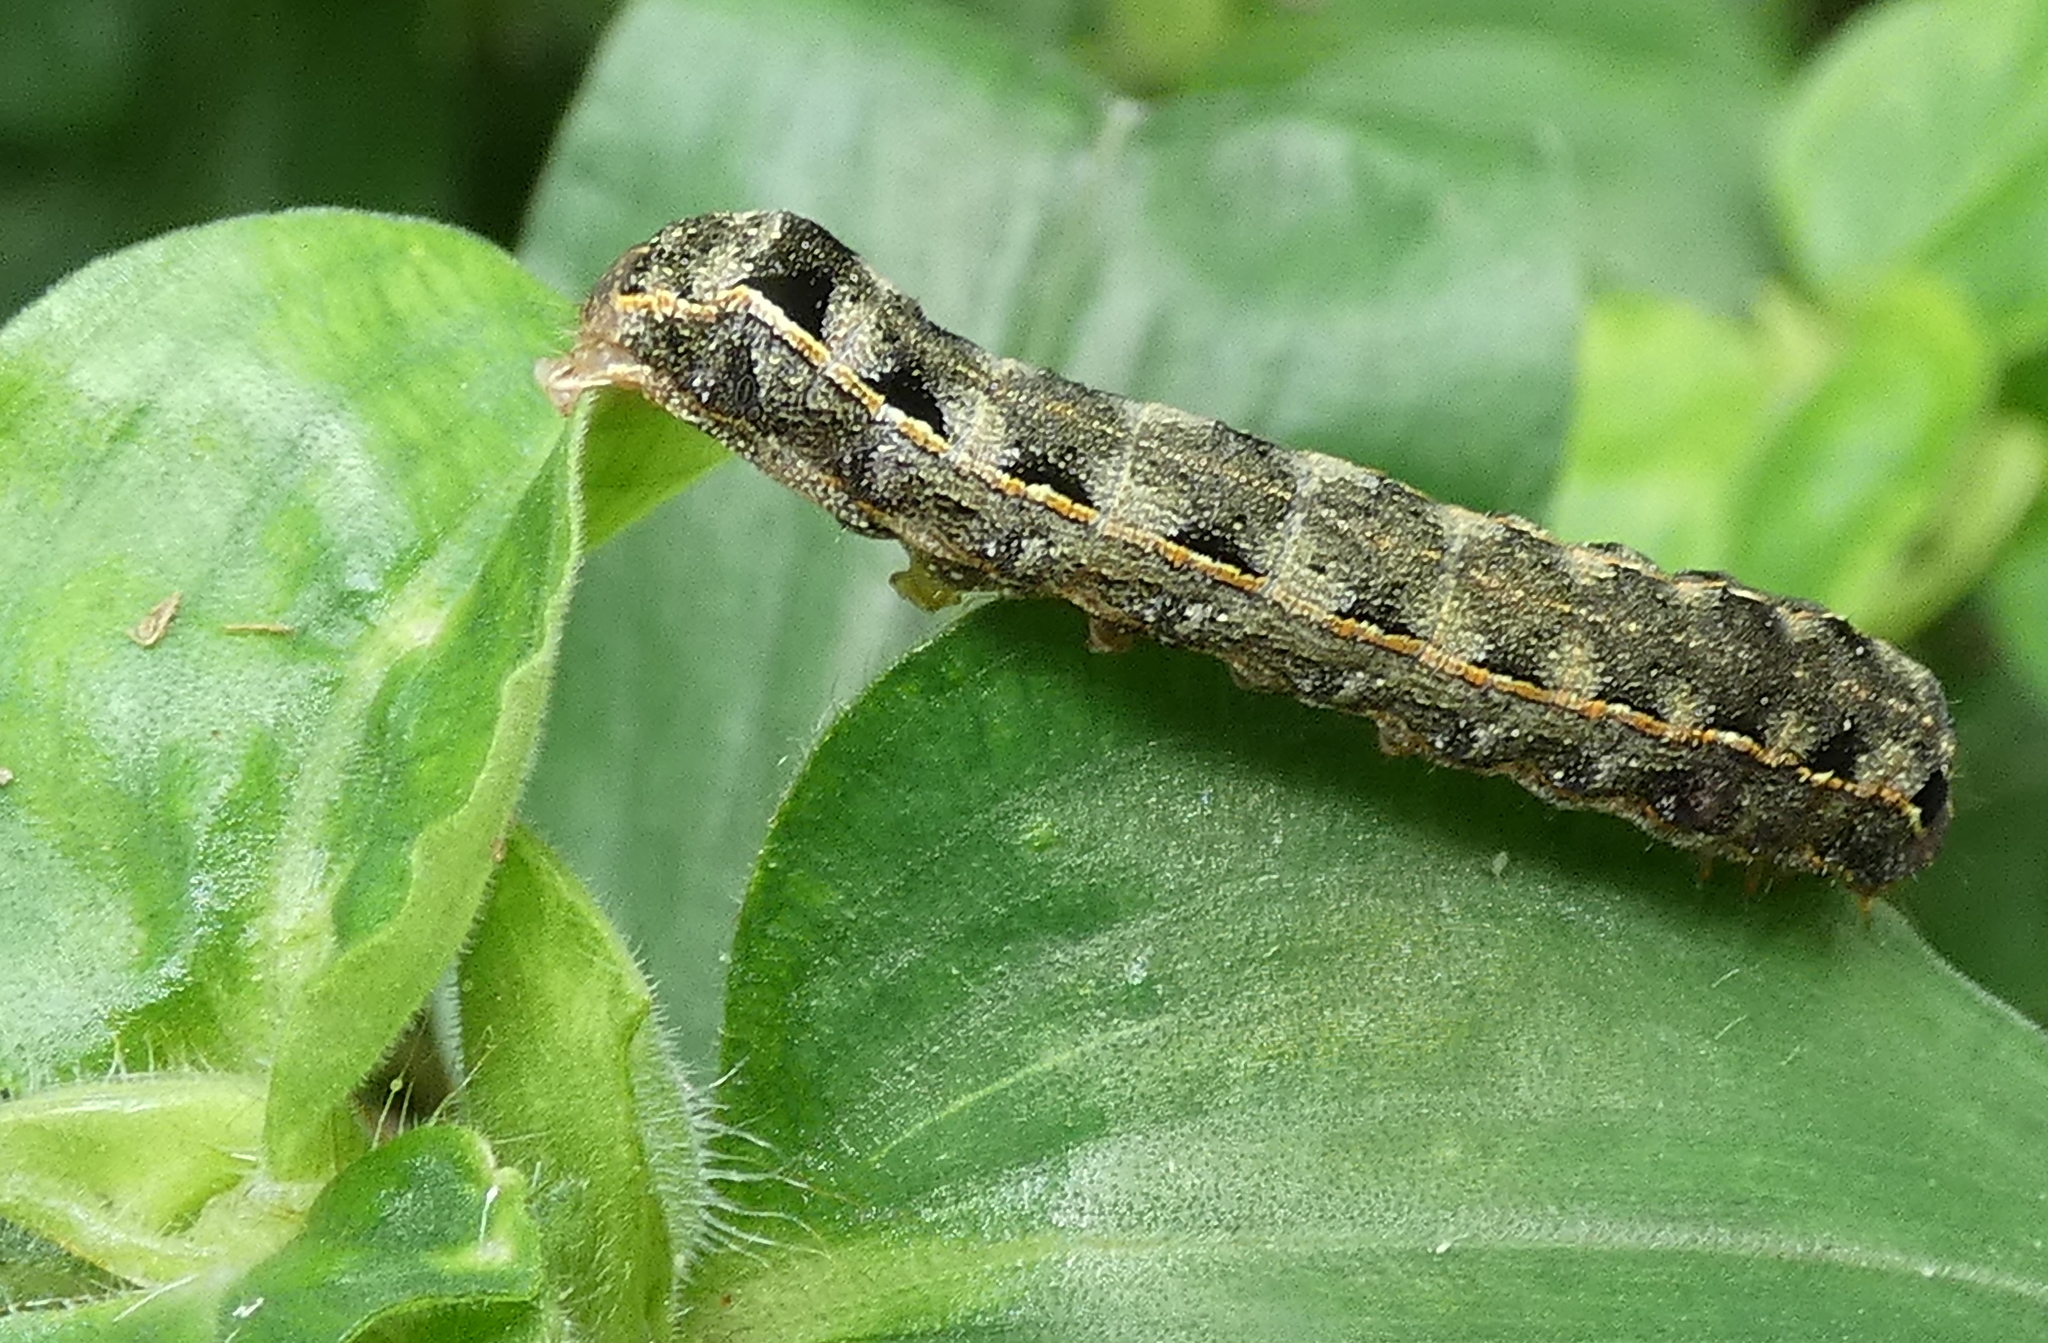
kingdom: Animalia
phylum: Arthropoda
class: Insecta
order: Lepidoptera
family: Noctuidae
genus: Spodoptera
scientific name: Spodoptera cosmioides
